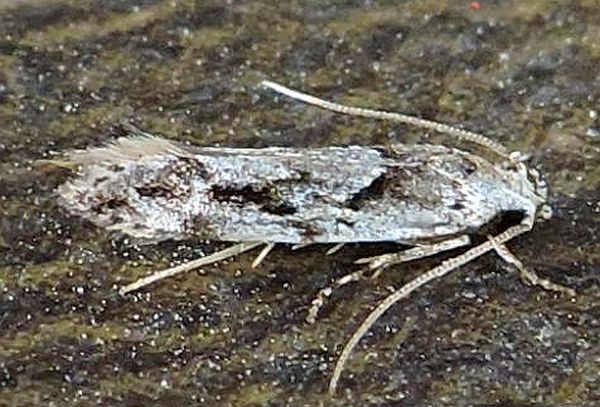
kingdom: Animalia
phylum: Arthropoda
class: Insecta
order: Lepidoptera
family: Gelechiidae
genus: Sinoe
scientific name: Sinoe chambersi
